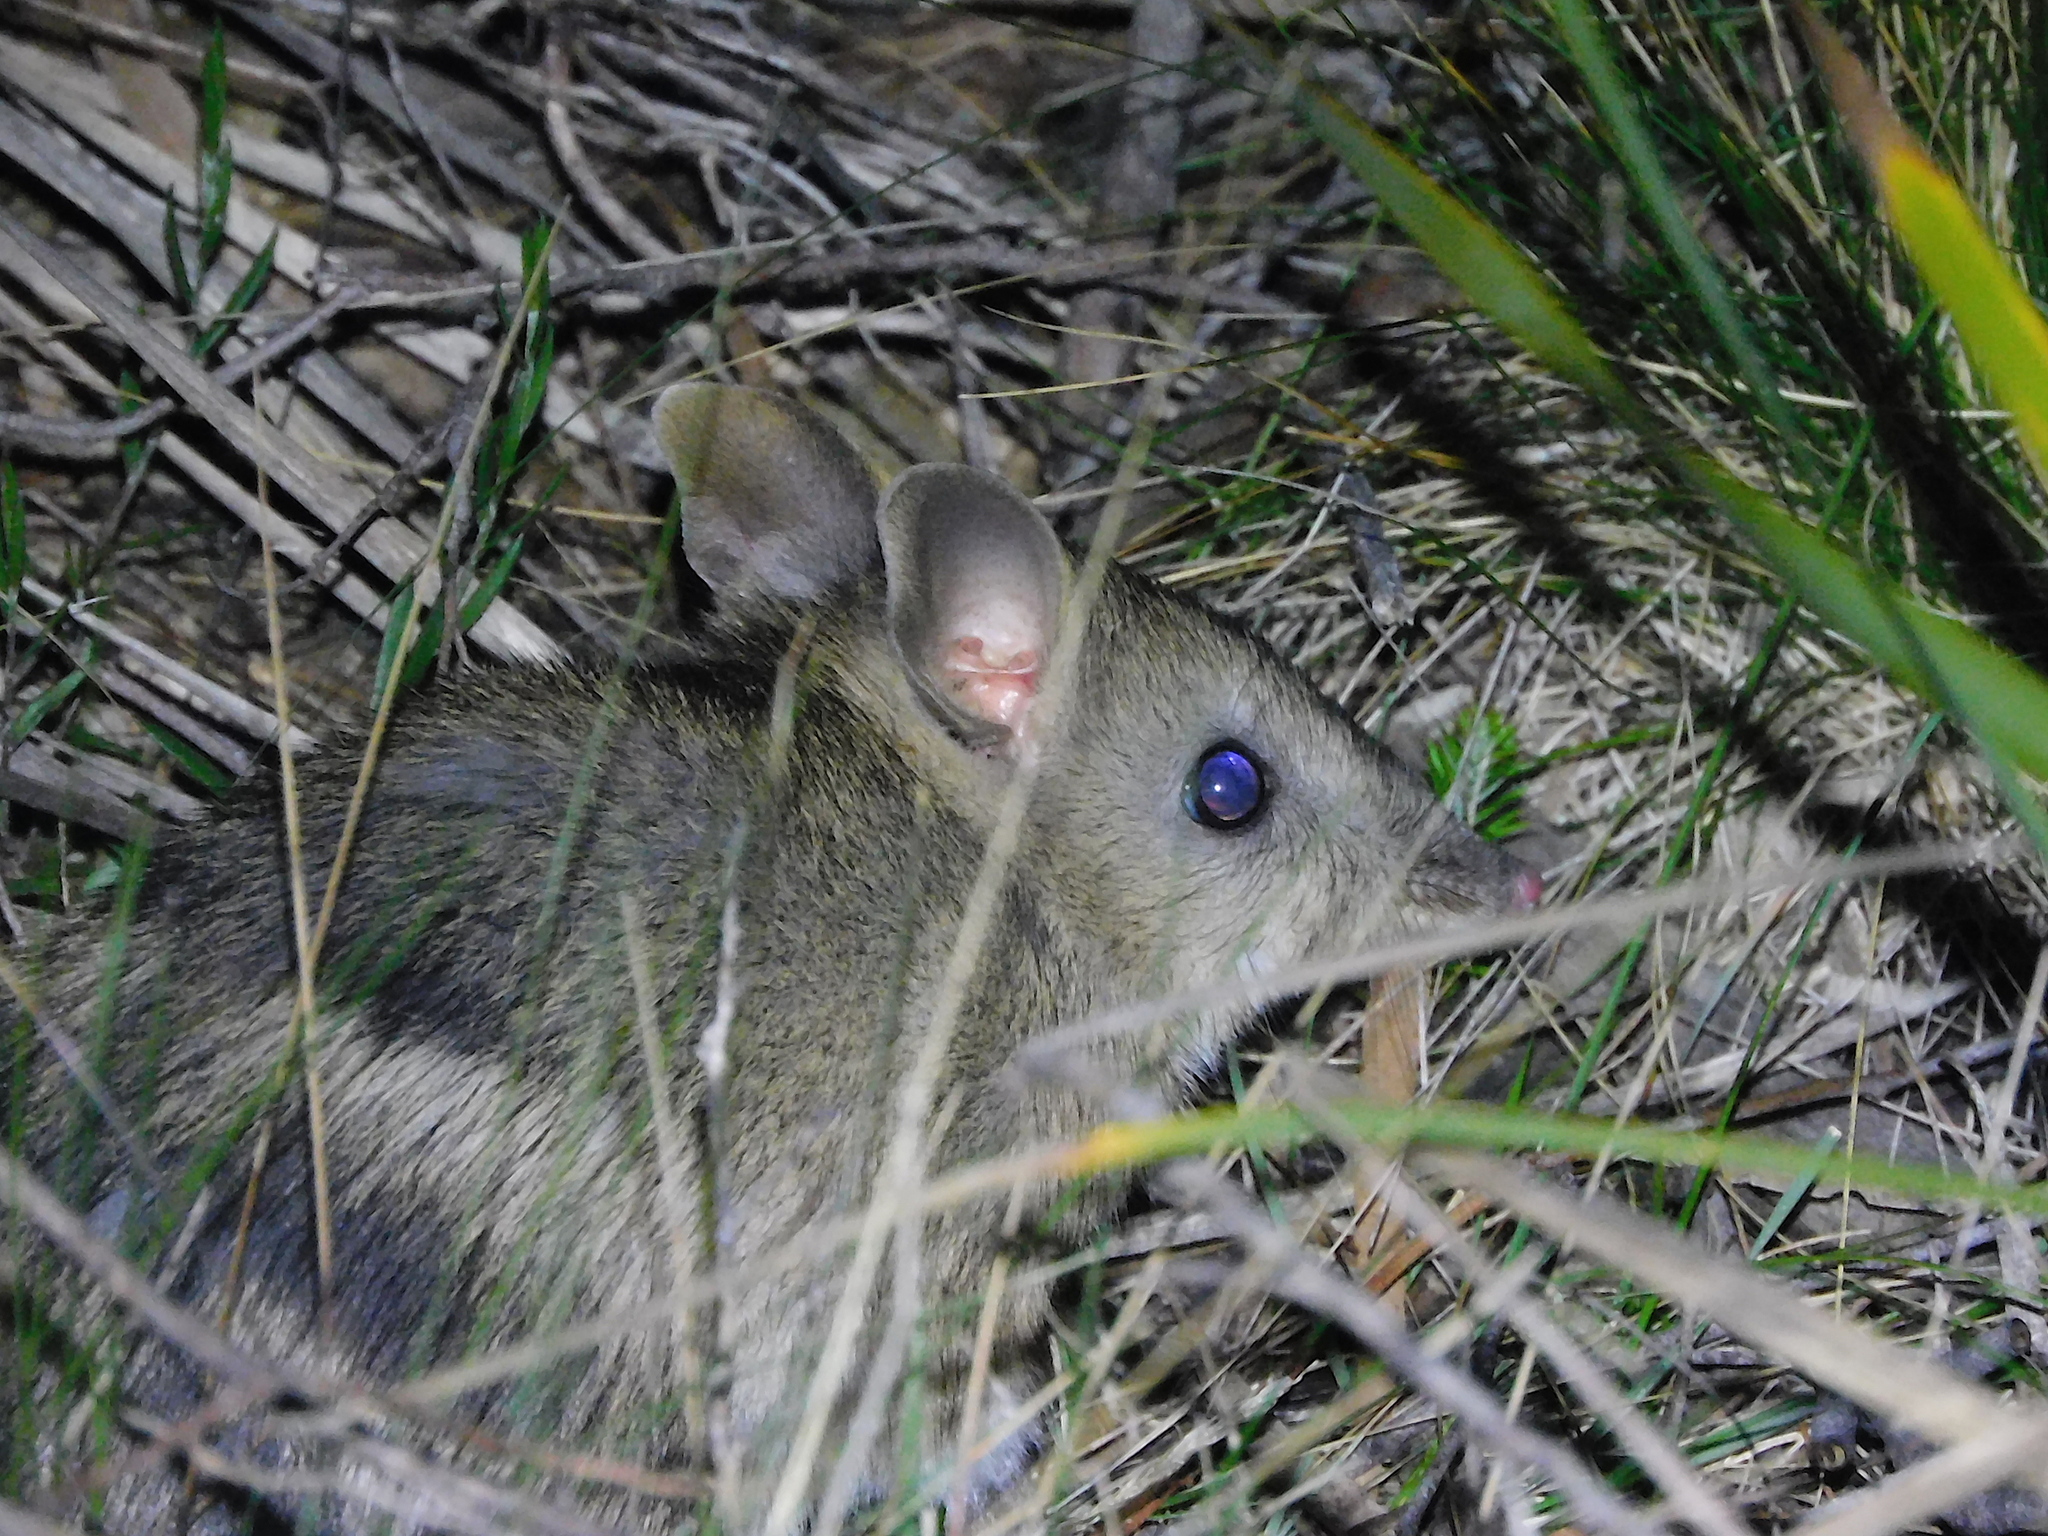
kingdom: Animalia
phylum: Chordata
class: Mammalia
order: Peramelemorphia
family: Peramelidae
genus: Perameles
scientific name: Perameles gunnii
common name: Eastern barred bandicoot
